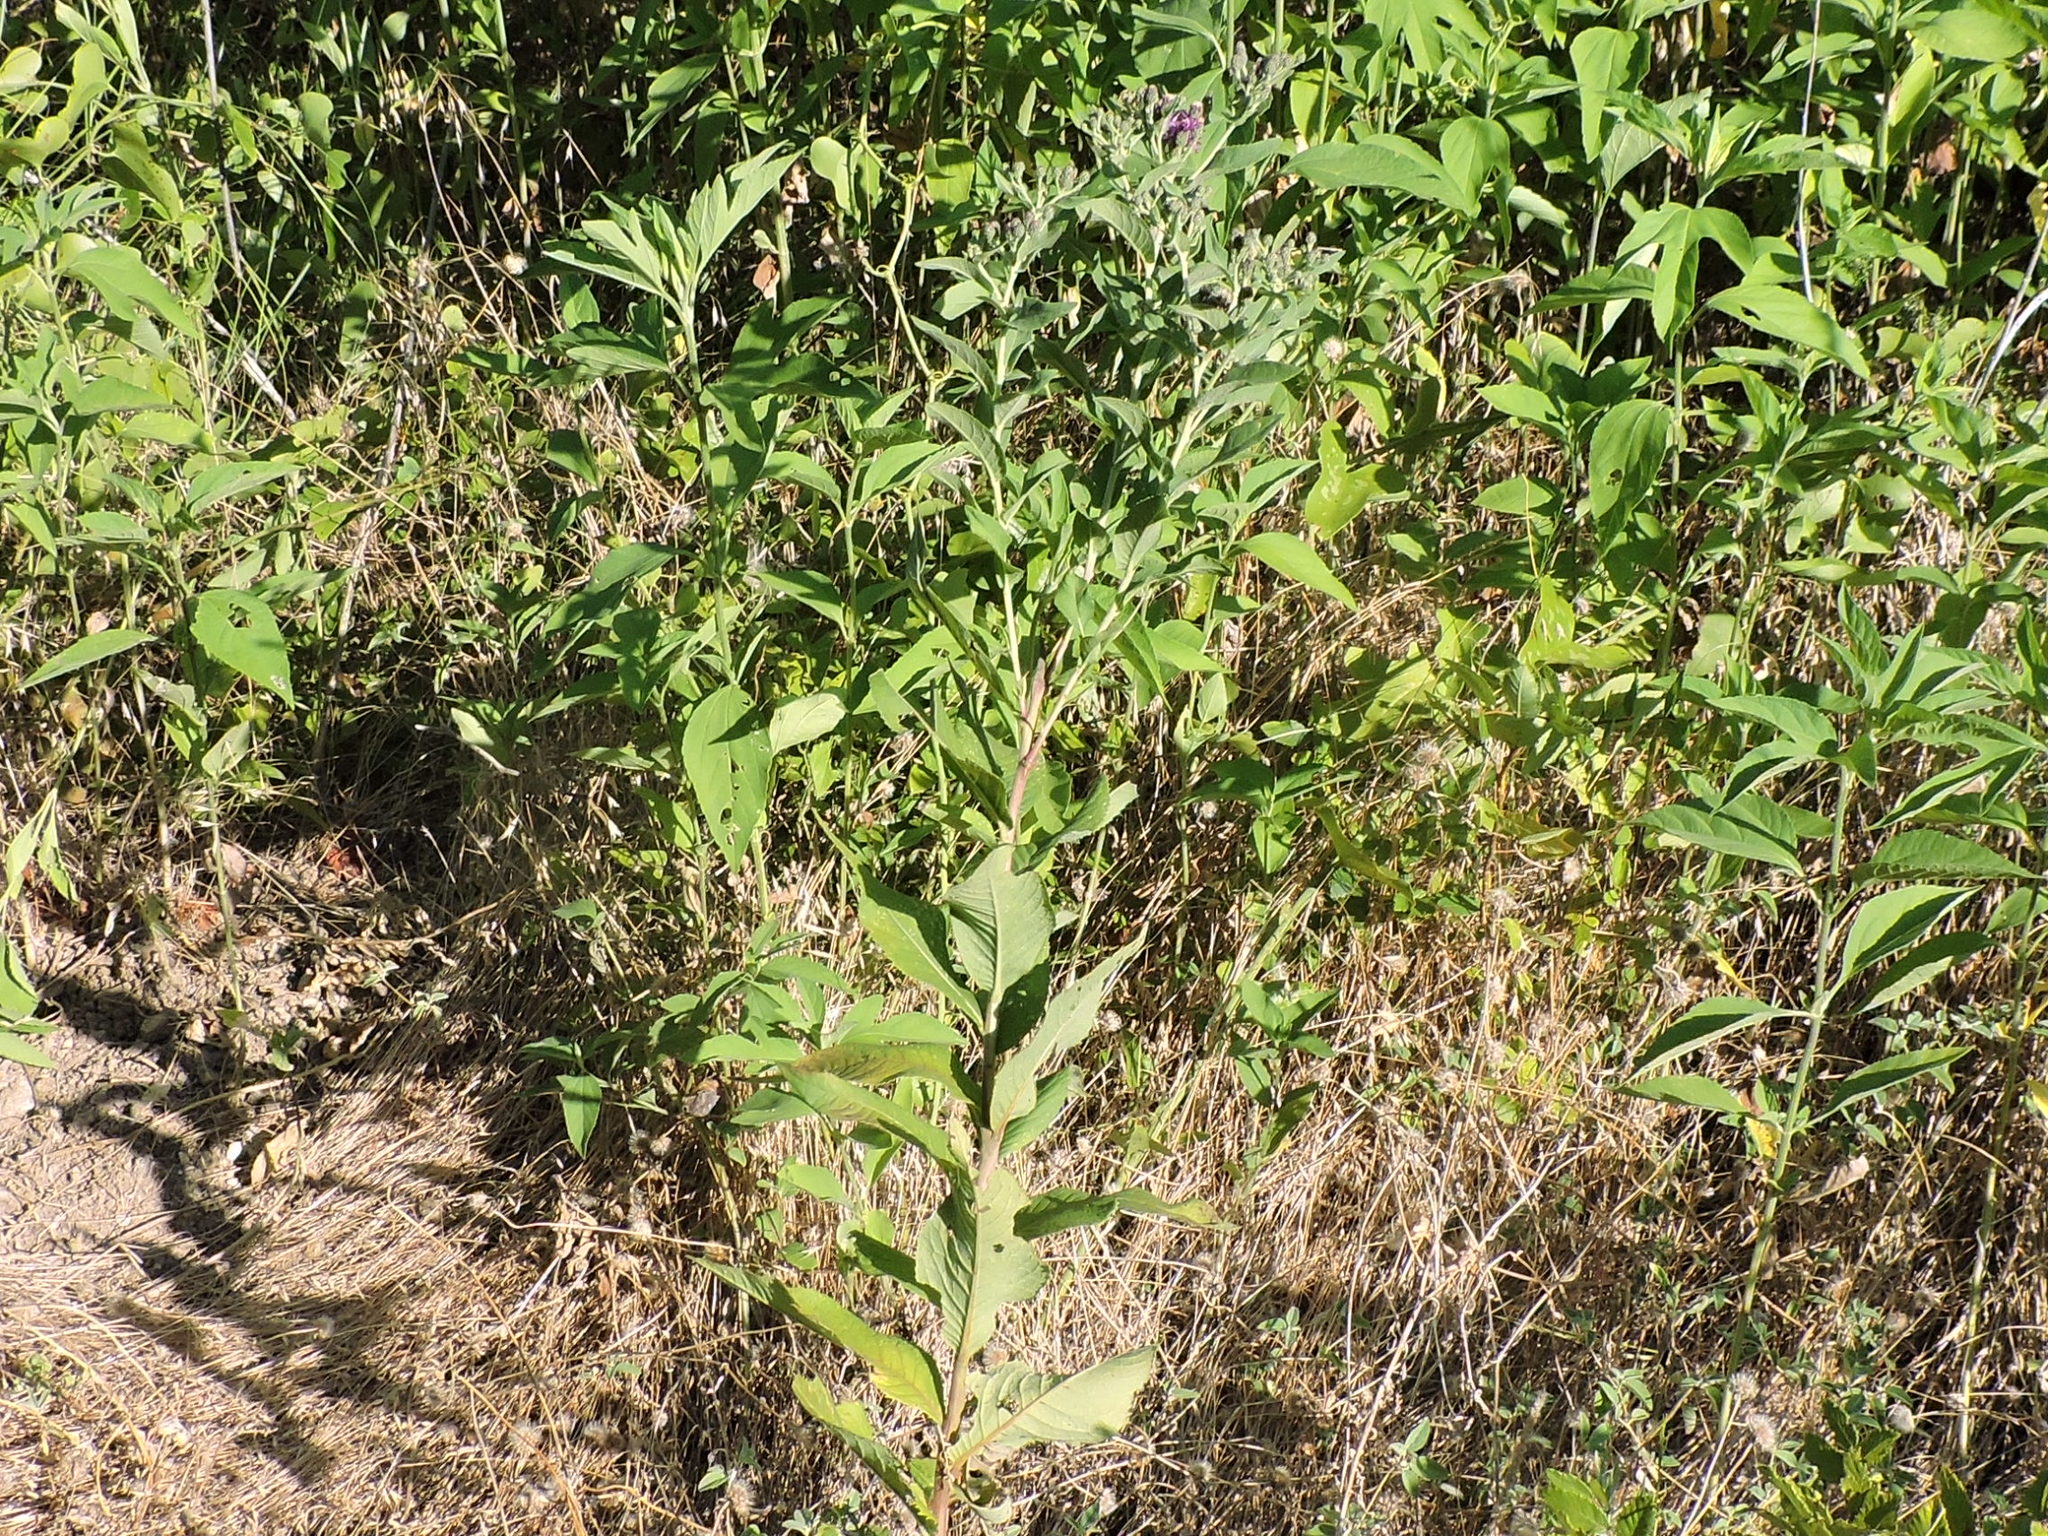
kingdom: Plantae
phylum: Tracheophyta
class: Magnoliopsida
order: Asterales
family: Asteraceae
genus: Vernonia
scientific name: Vernonia baldwinii
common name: Western ironweed
